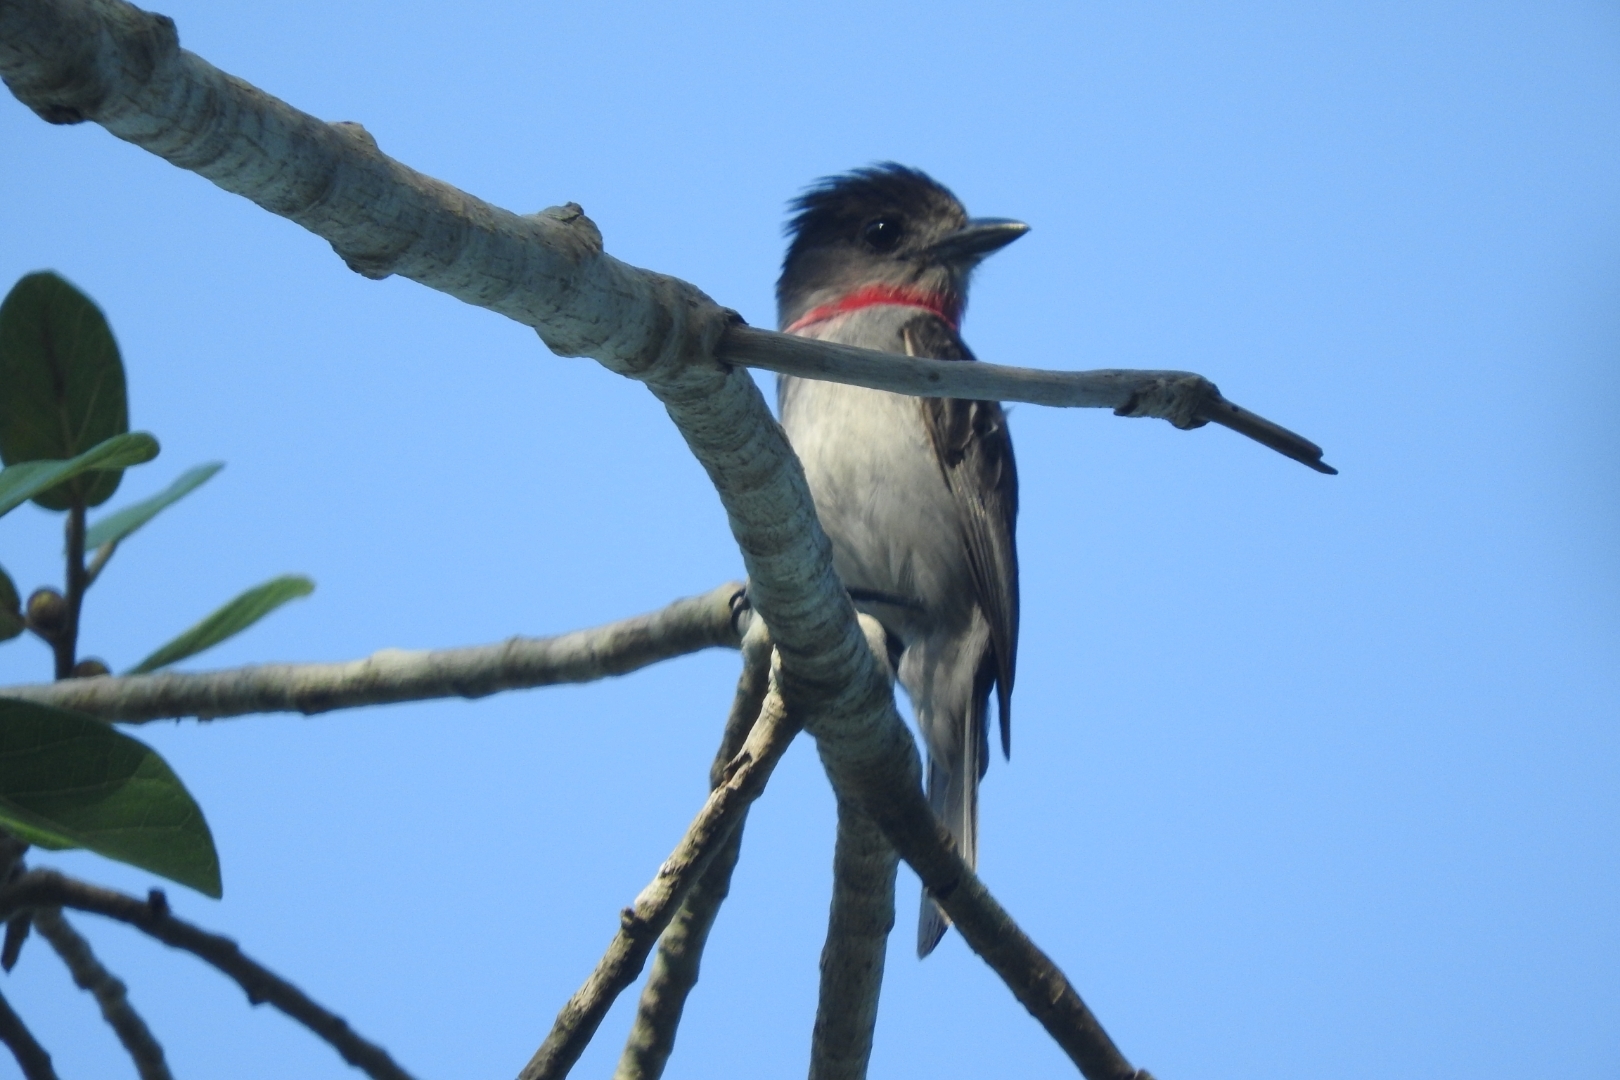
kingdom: Animalia
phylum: Chordata
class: Aves
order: Passeriformes
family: Cotingidae
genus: Pachyramphus
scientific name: Pachyramphus aglaiae
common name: Rose-throated becard
